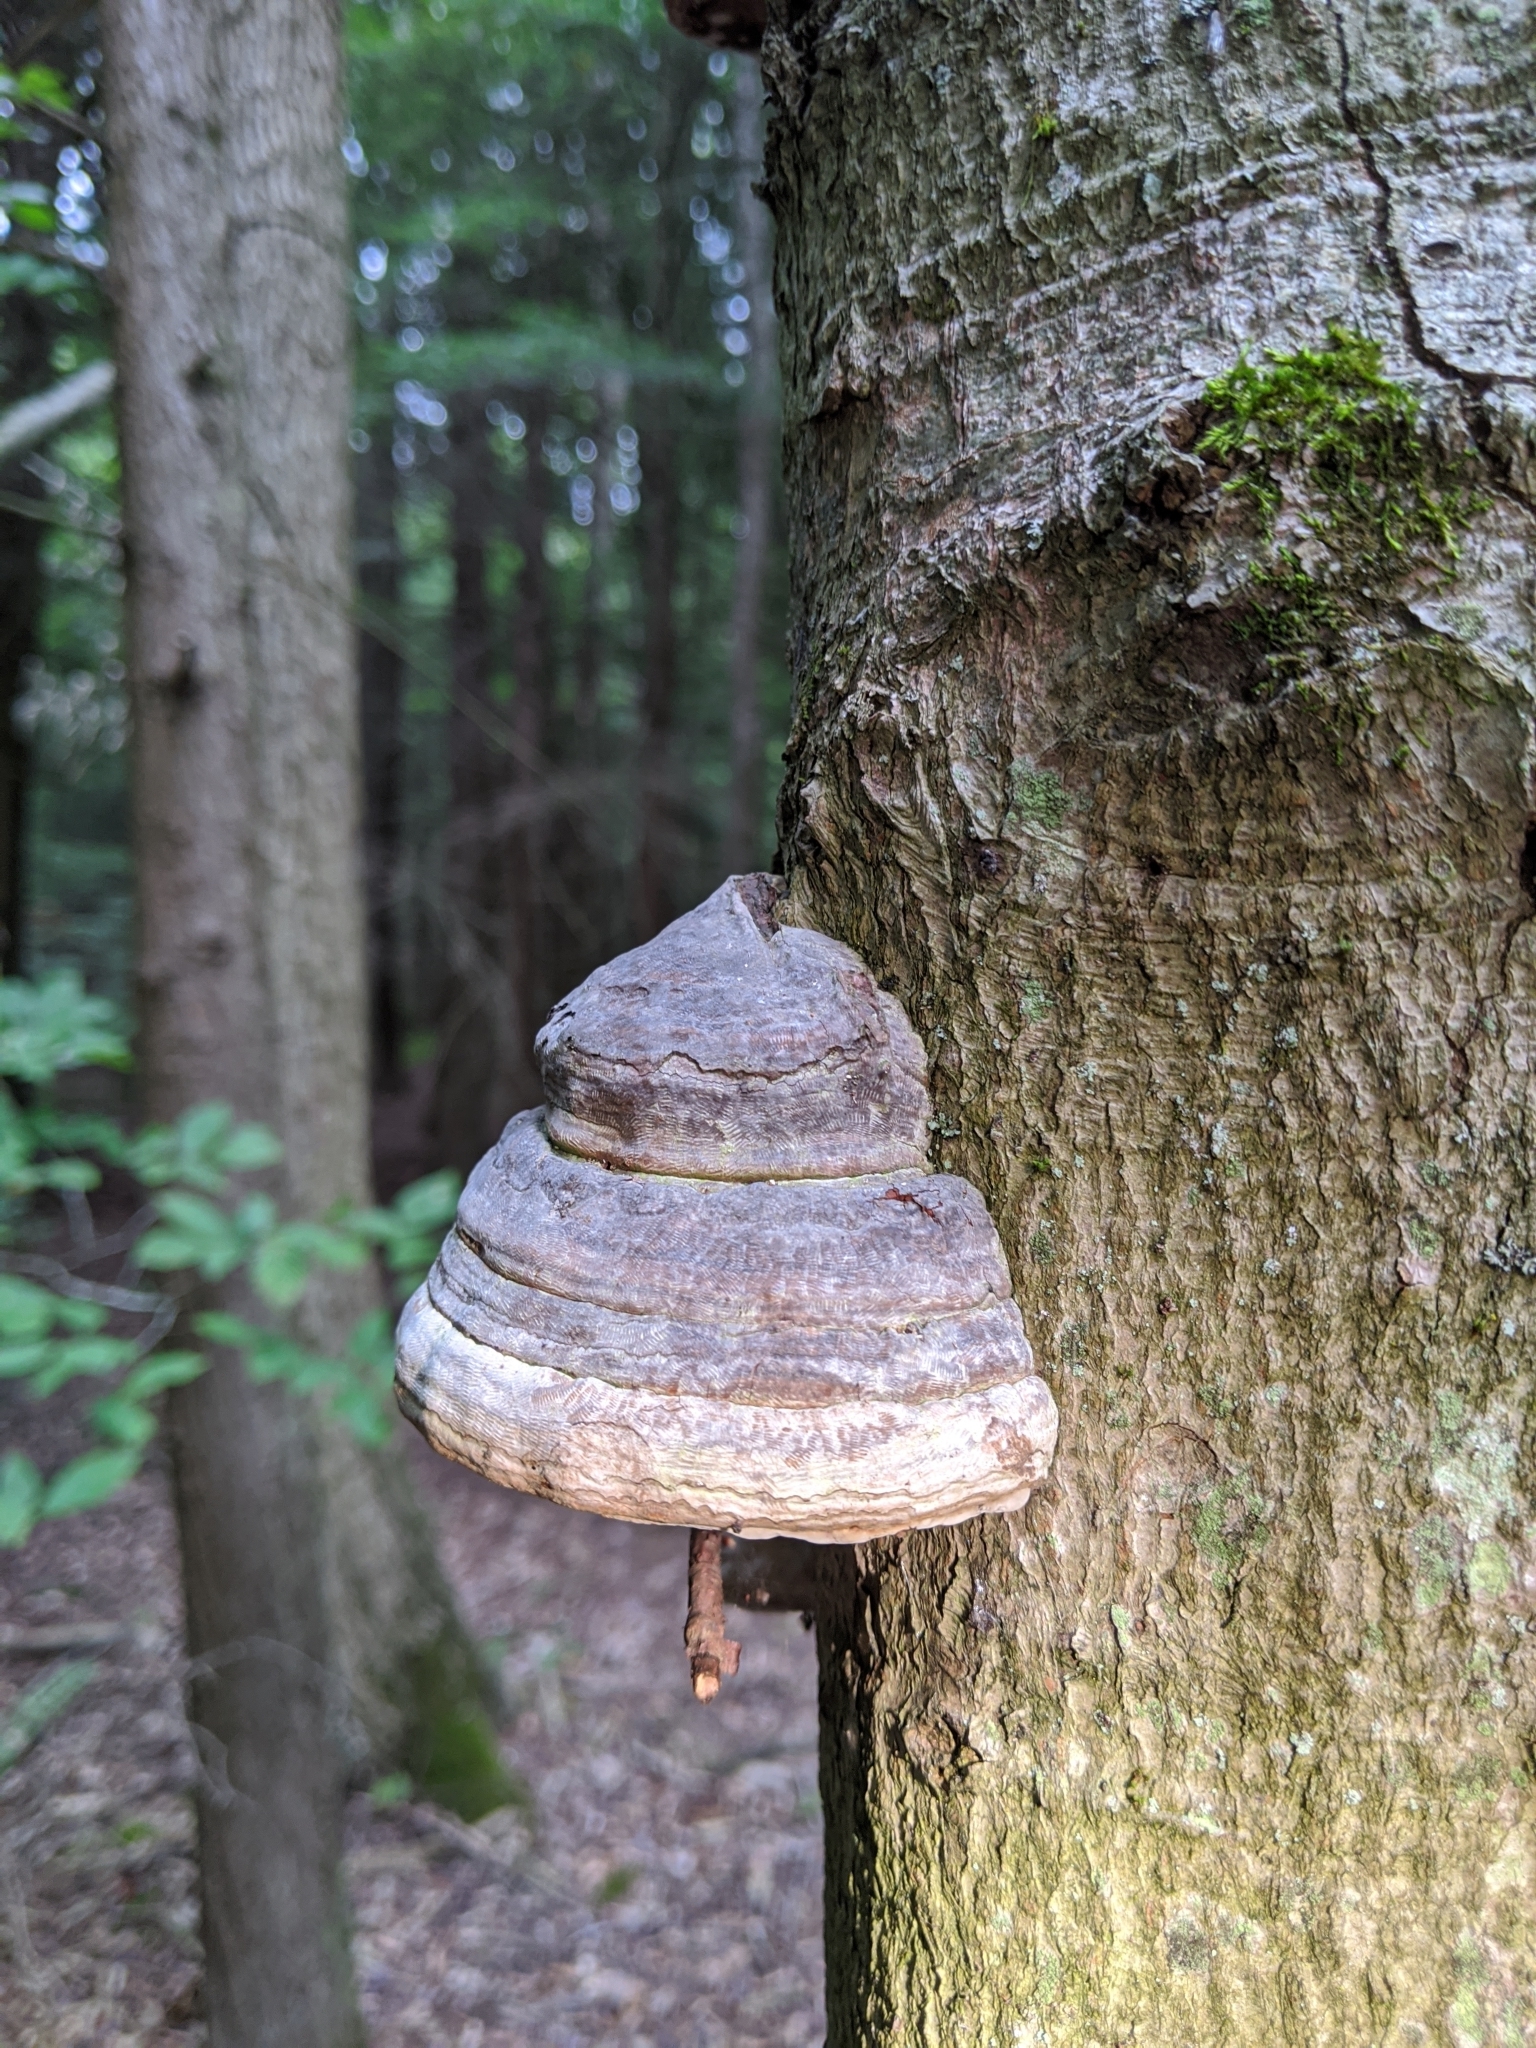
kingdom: Fungi
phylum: Basidiomycota
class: Agaricomycetes
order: Polyporales
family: Polyporaceae
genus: Fomes
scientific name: Fomes fomentarius
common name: Hoof fungus
